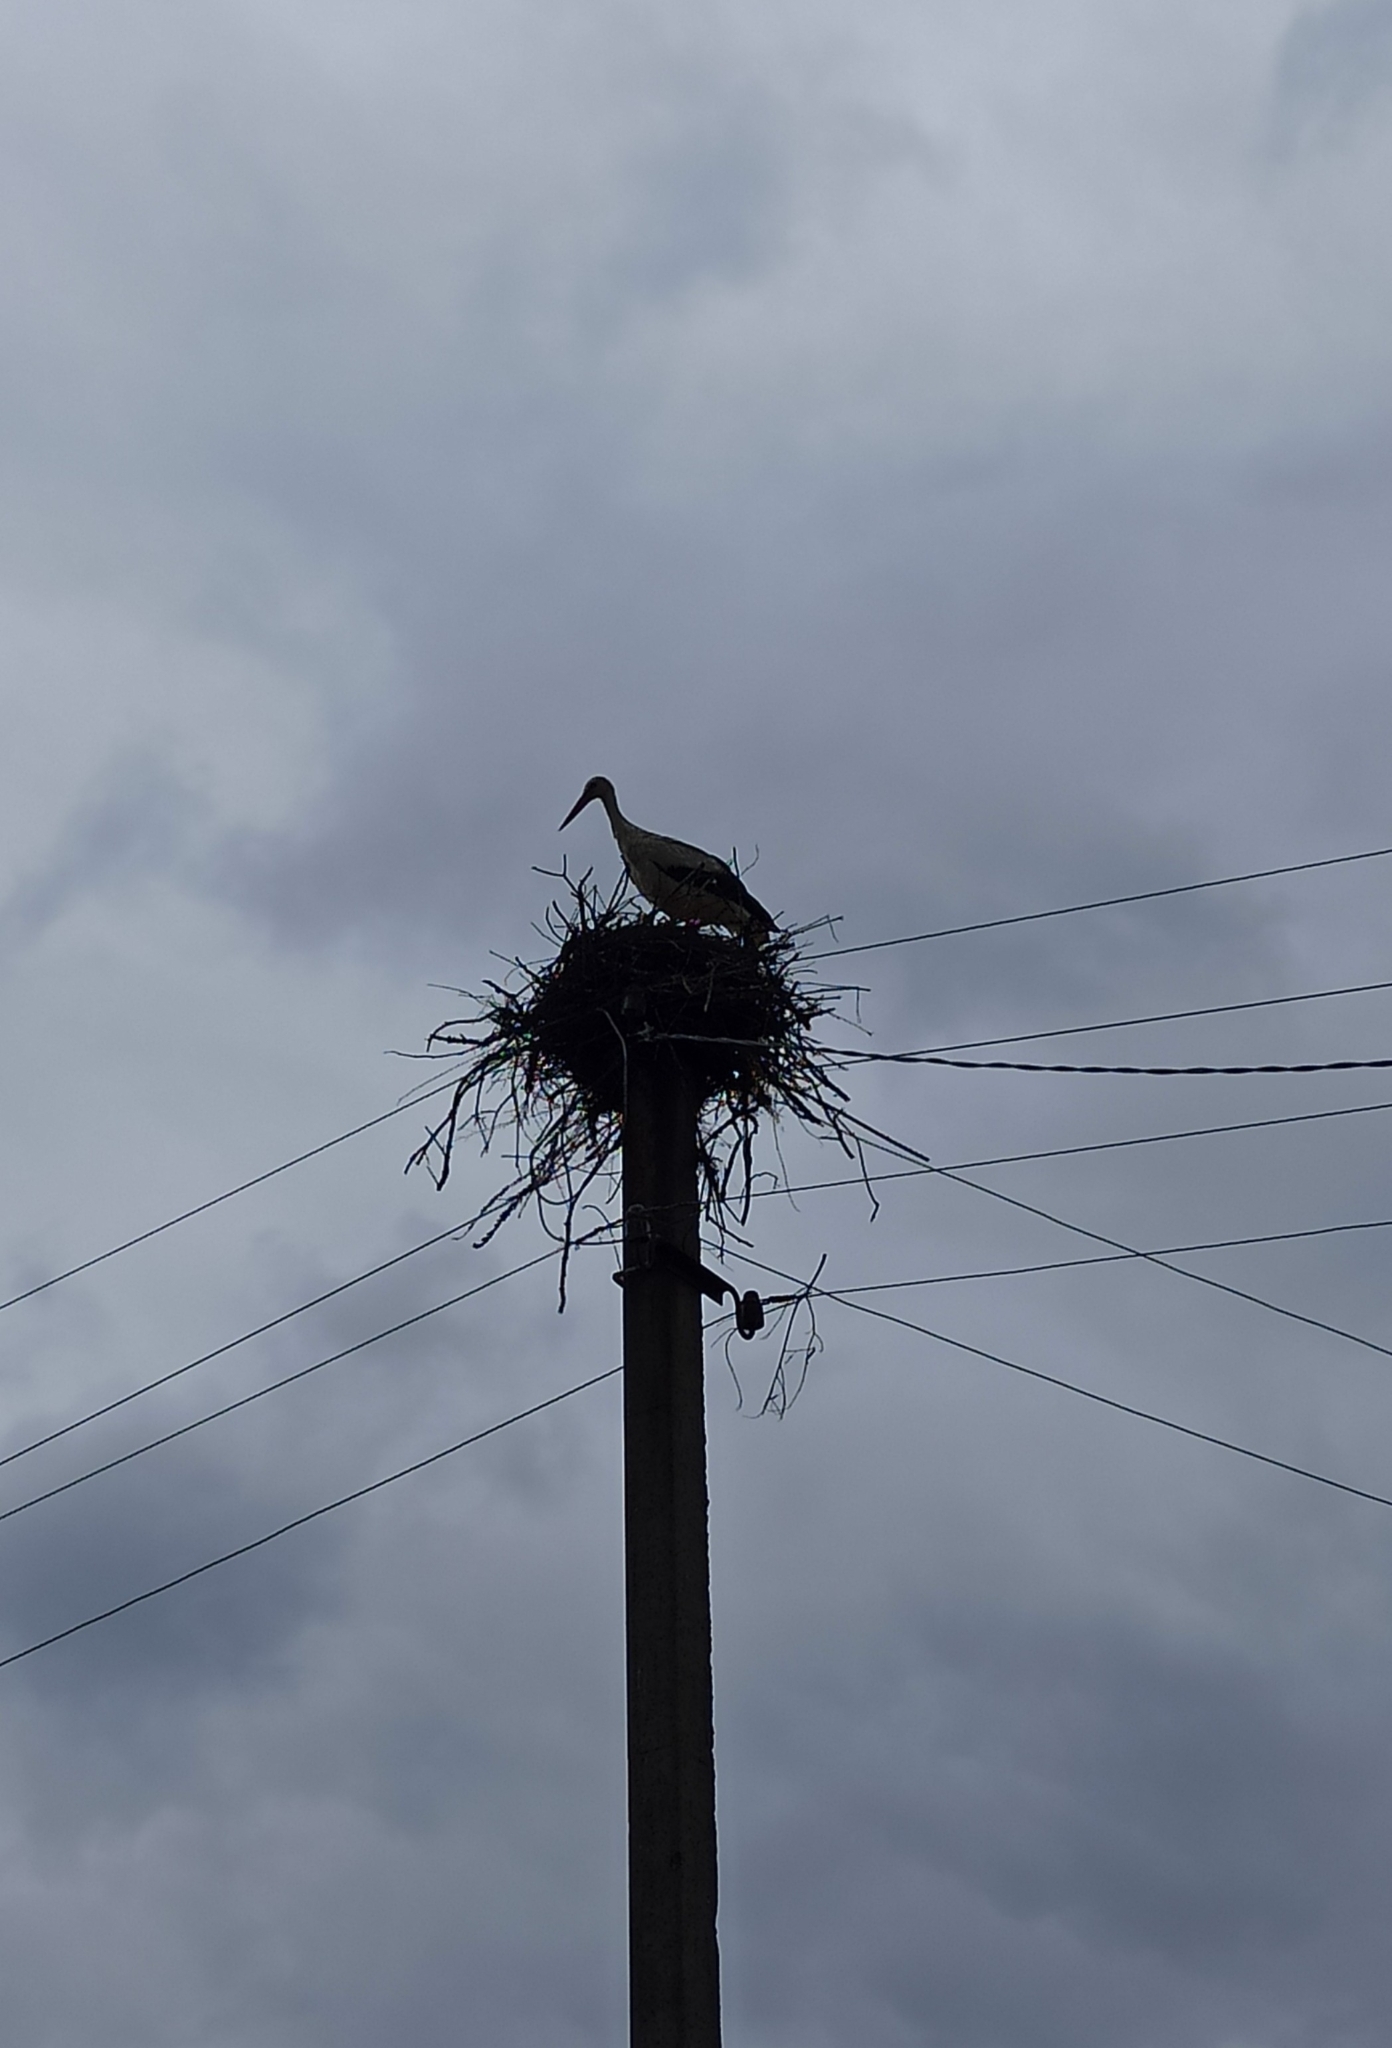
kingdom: Animalia
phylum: Chordata
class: Aves
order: Ciconiiformes
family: Ciconiidae
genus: Ciconia
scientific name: Ciconia ciconia
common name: White stork
